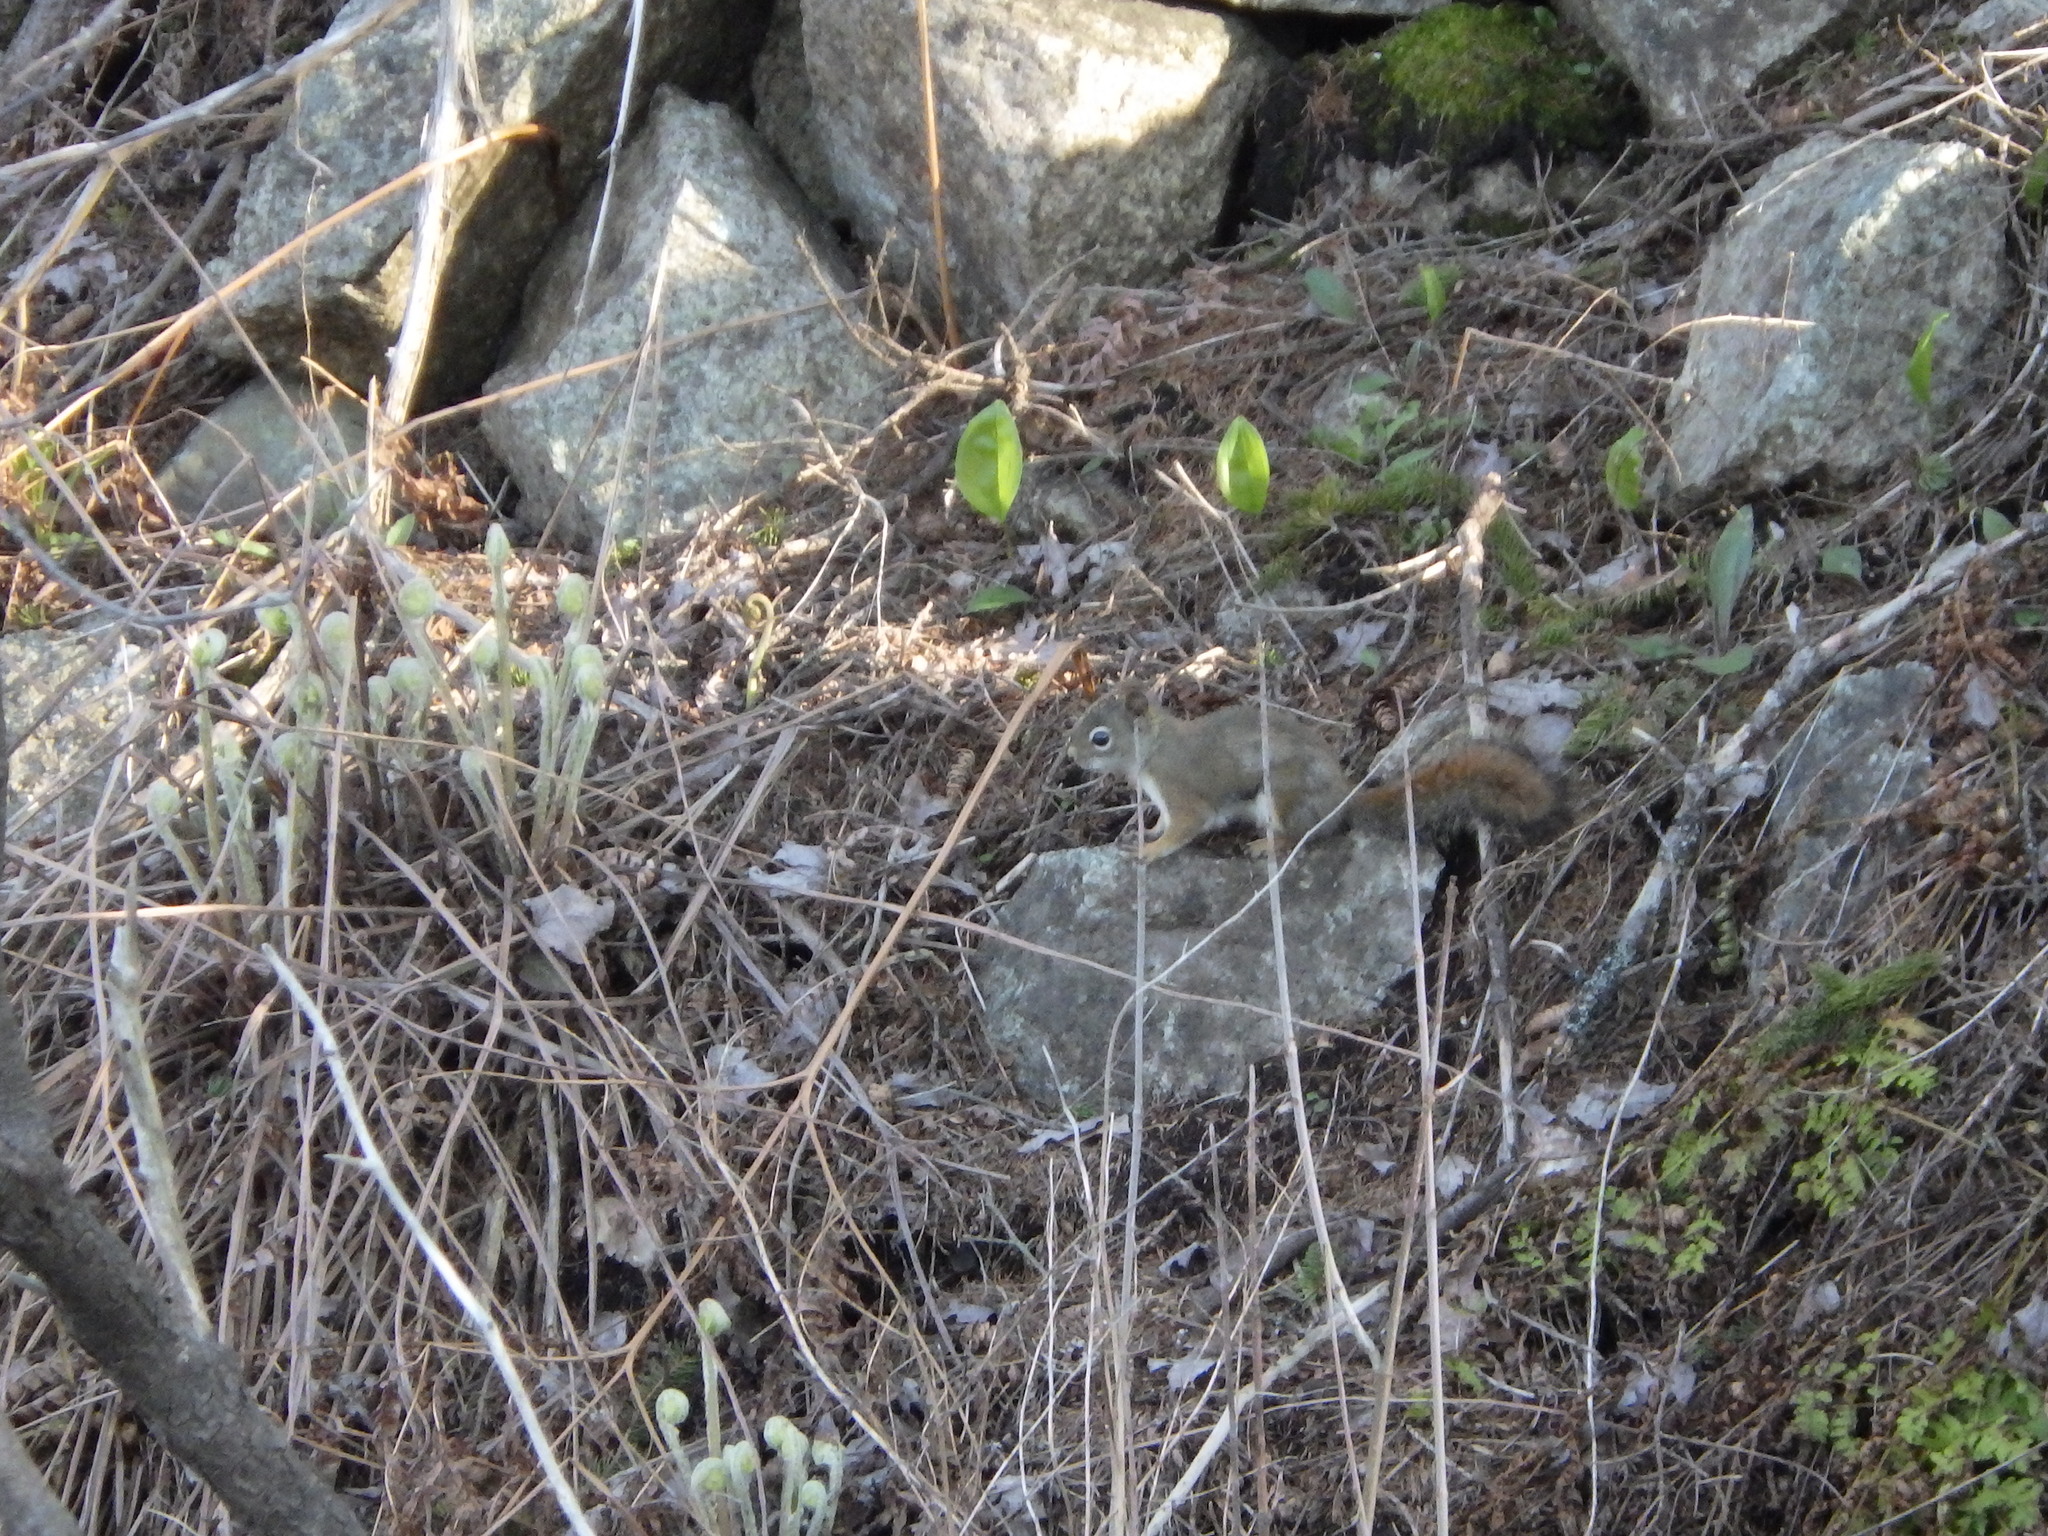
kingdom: Animalia
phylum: Chordata
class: Mammalia
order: Rodentia
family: Sciuridae
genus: Tamiasciurus
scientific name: Tamiasciurus hudsonicus
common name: Red squirrel
